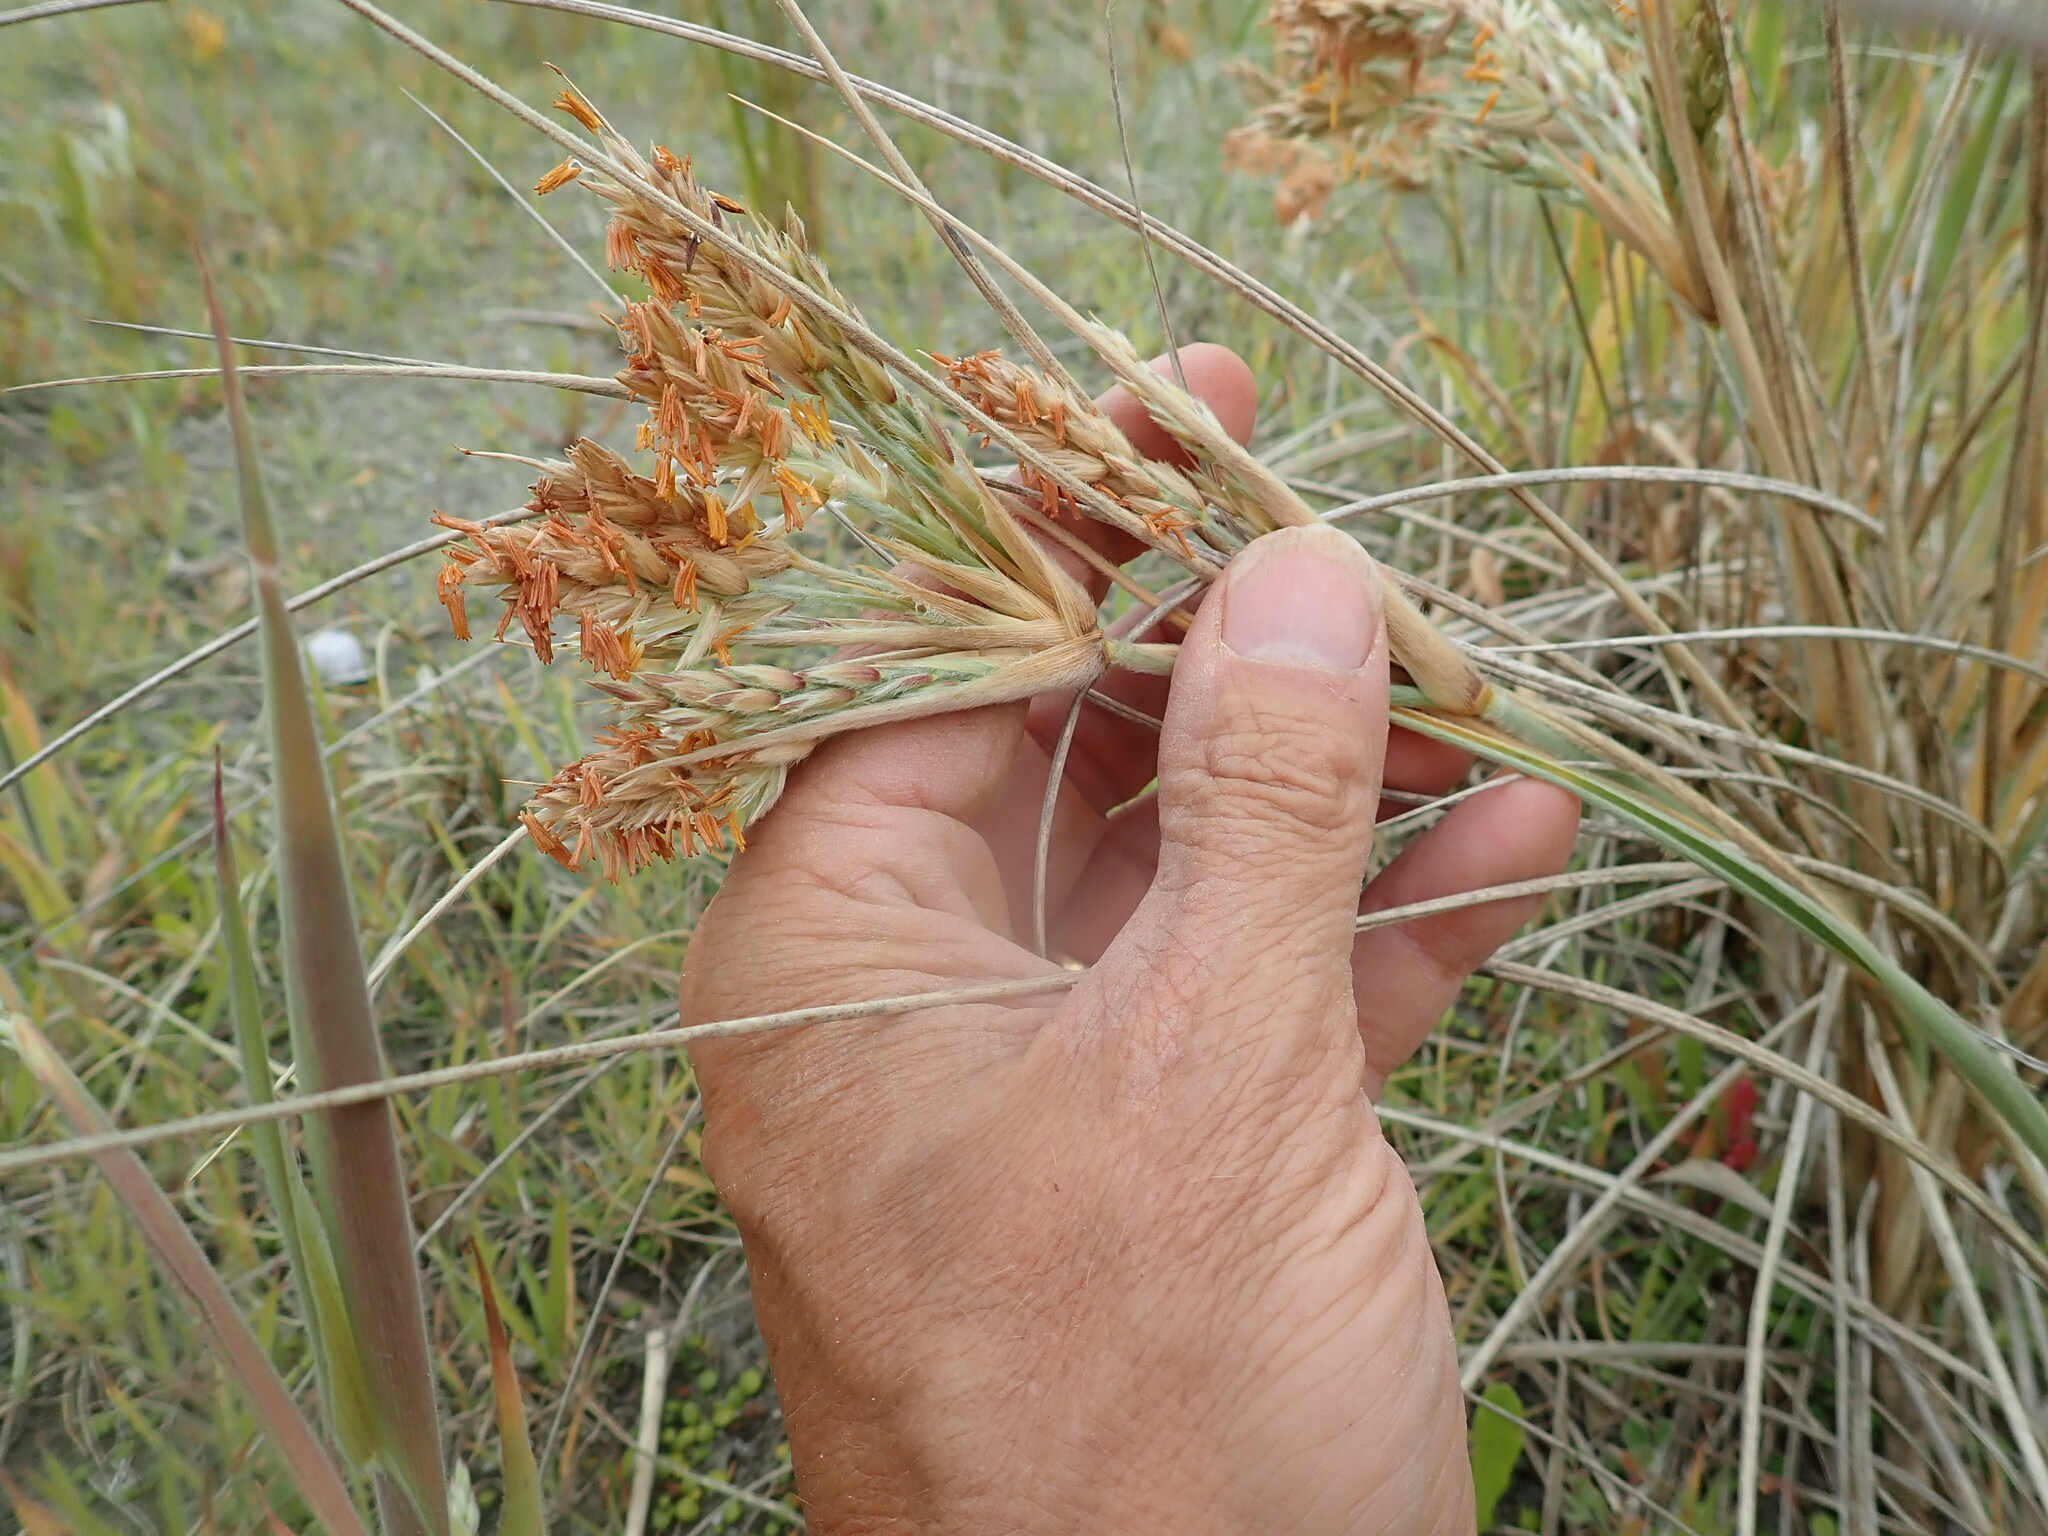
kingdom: Plantae
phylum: Tracheophyta
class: Liliopsida
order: Poales
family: Poaceae
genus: Spinifex
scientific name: Spinifex sericeus
